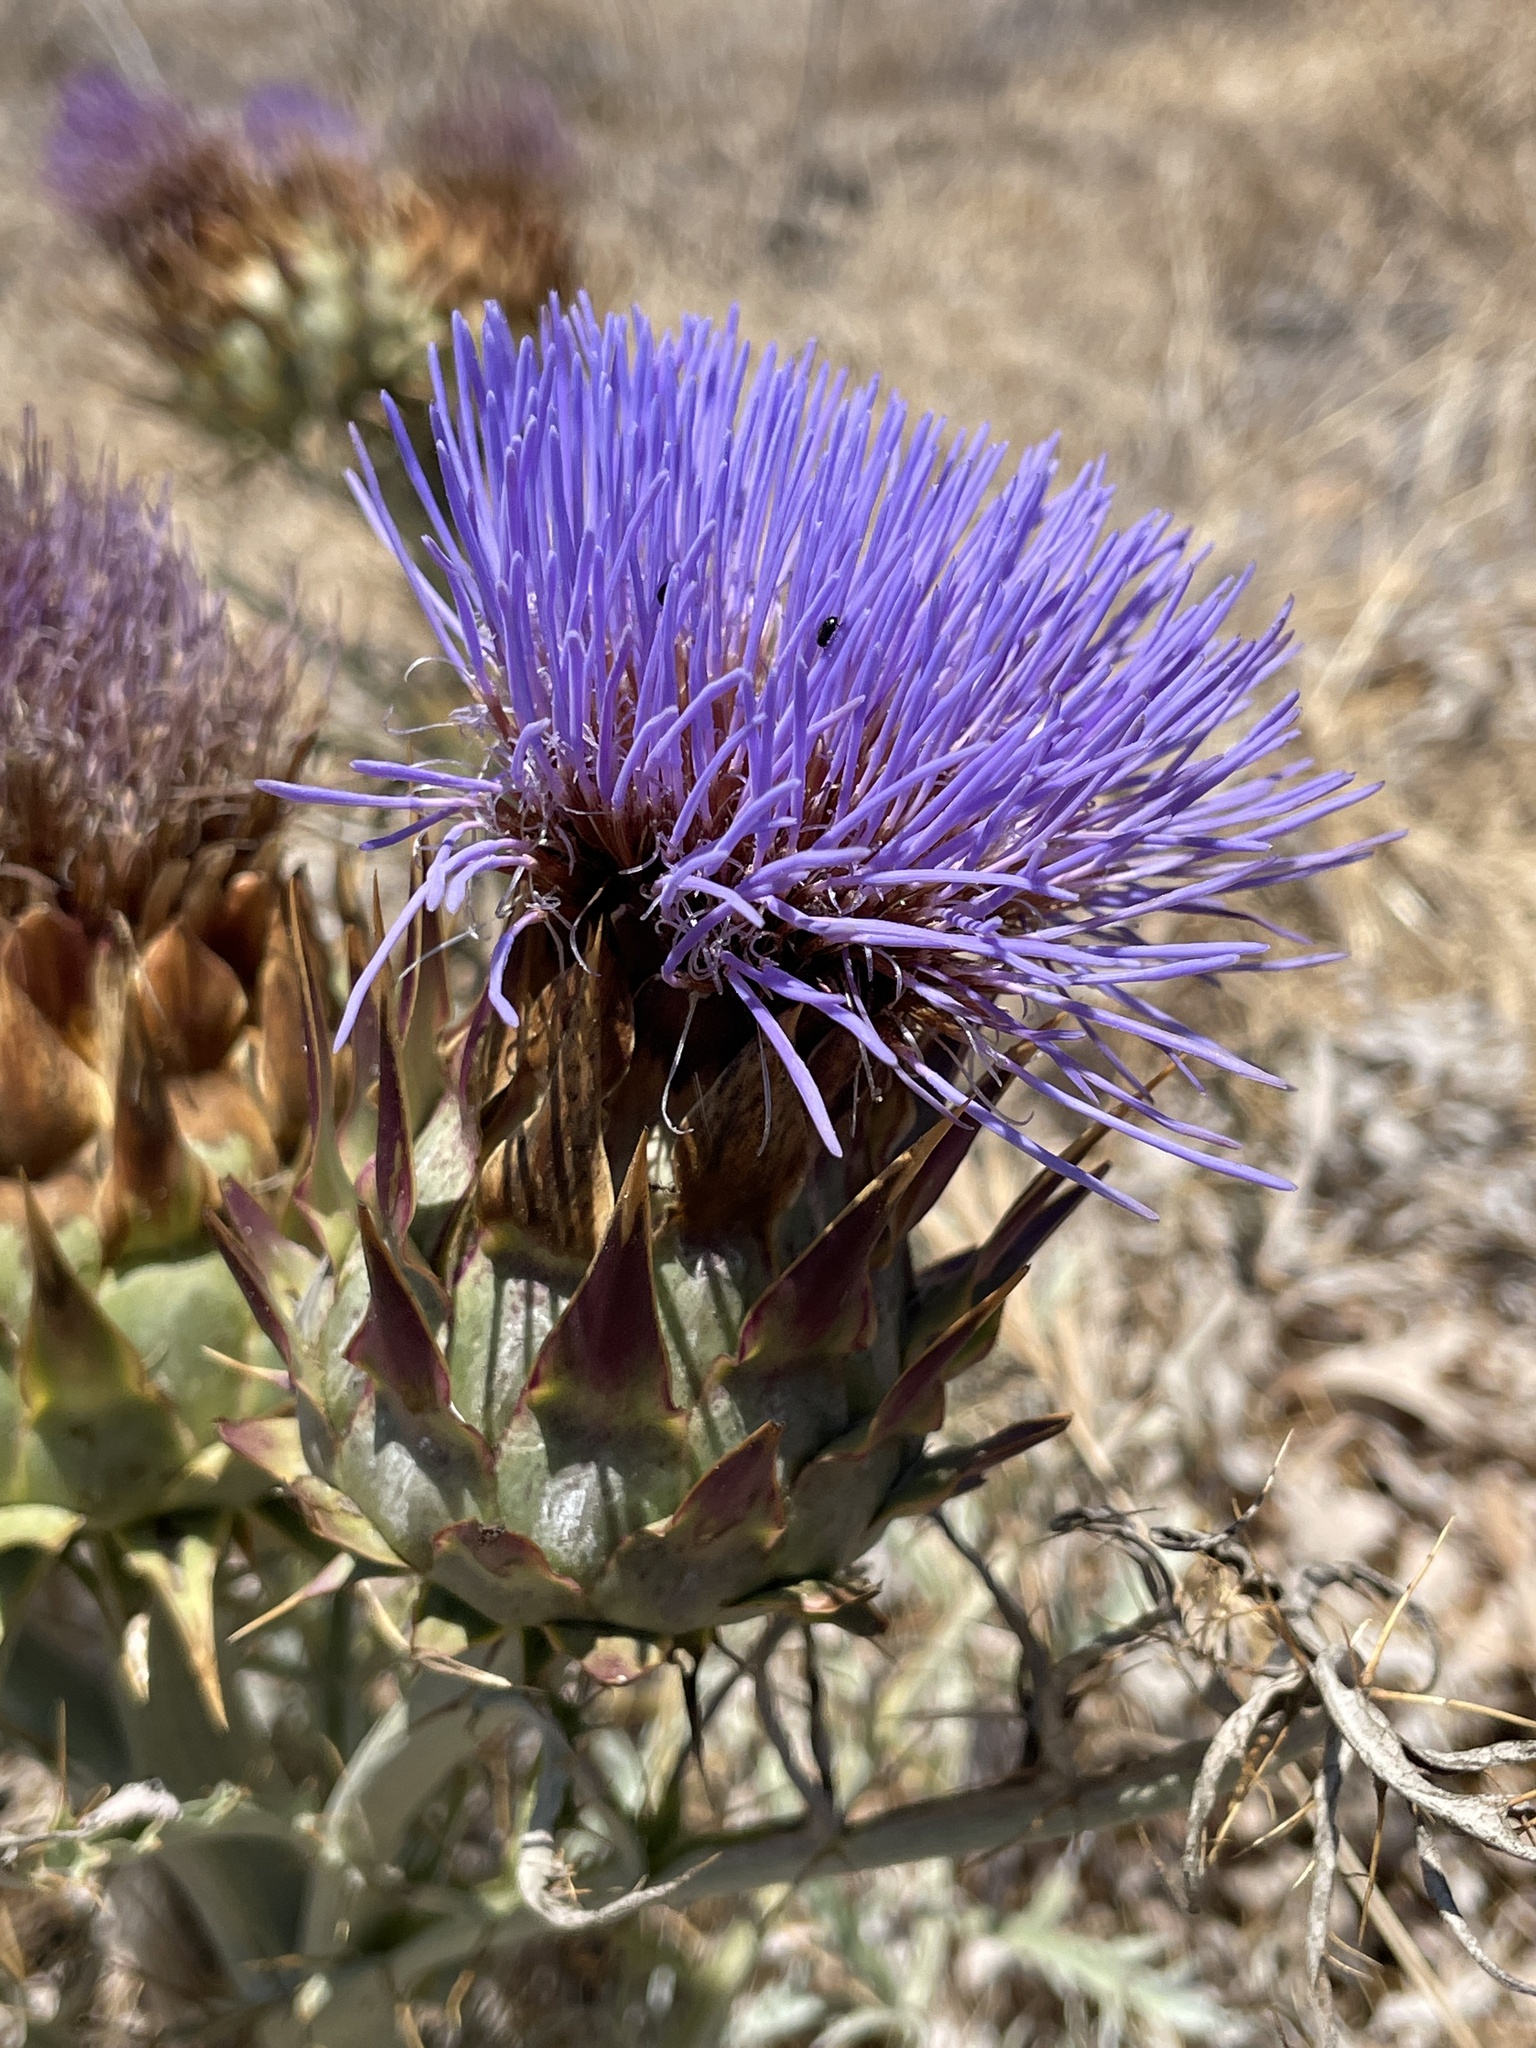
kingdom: Plantae
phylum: Tracheophyta
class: Magnoliopsida
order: Asterales
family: Asteraceae
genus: Cynara
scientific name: Cynara cardunculus
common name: Globe artichoke
